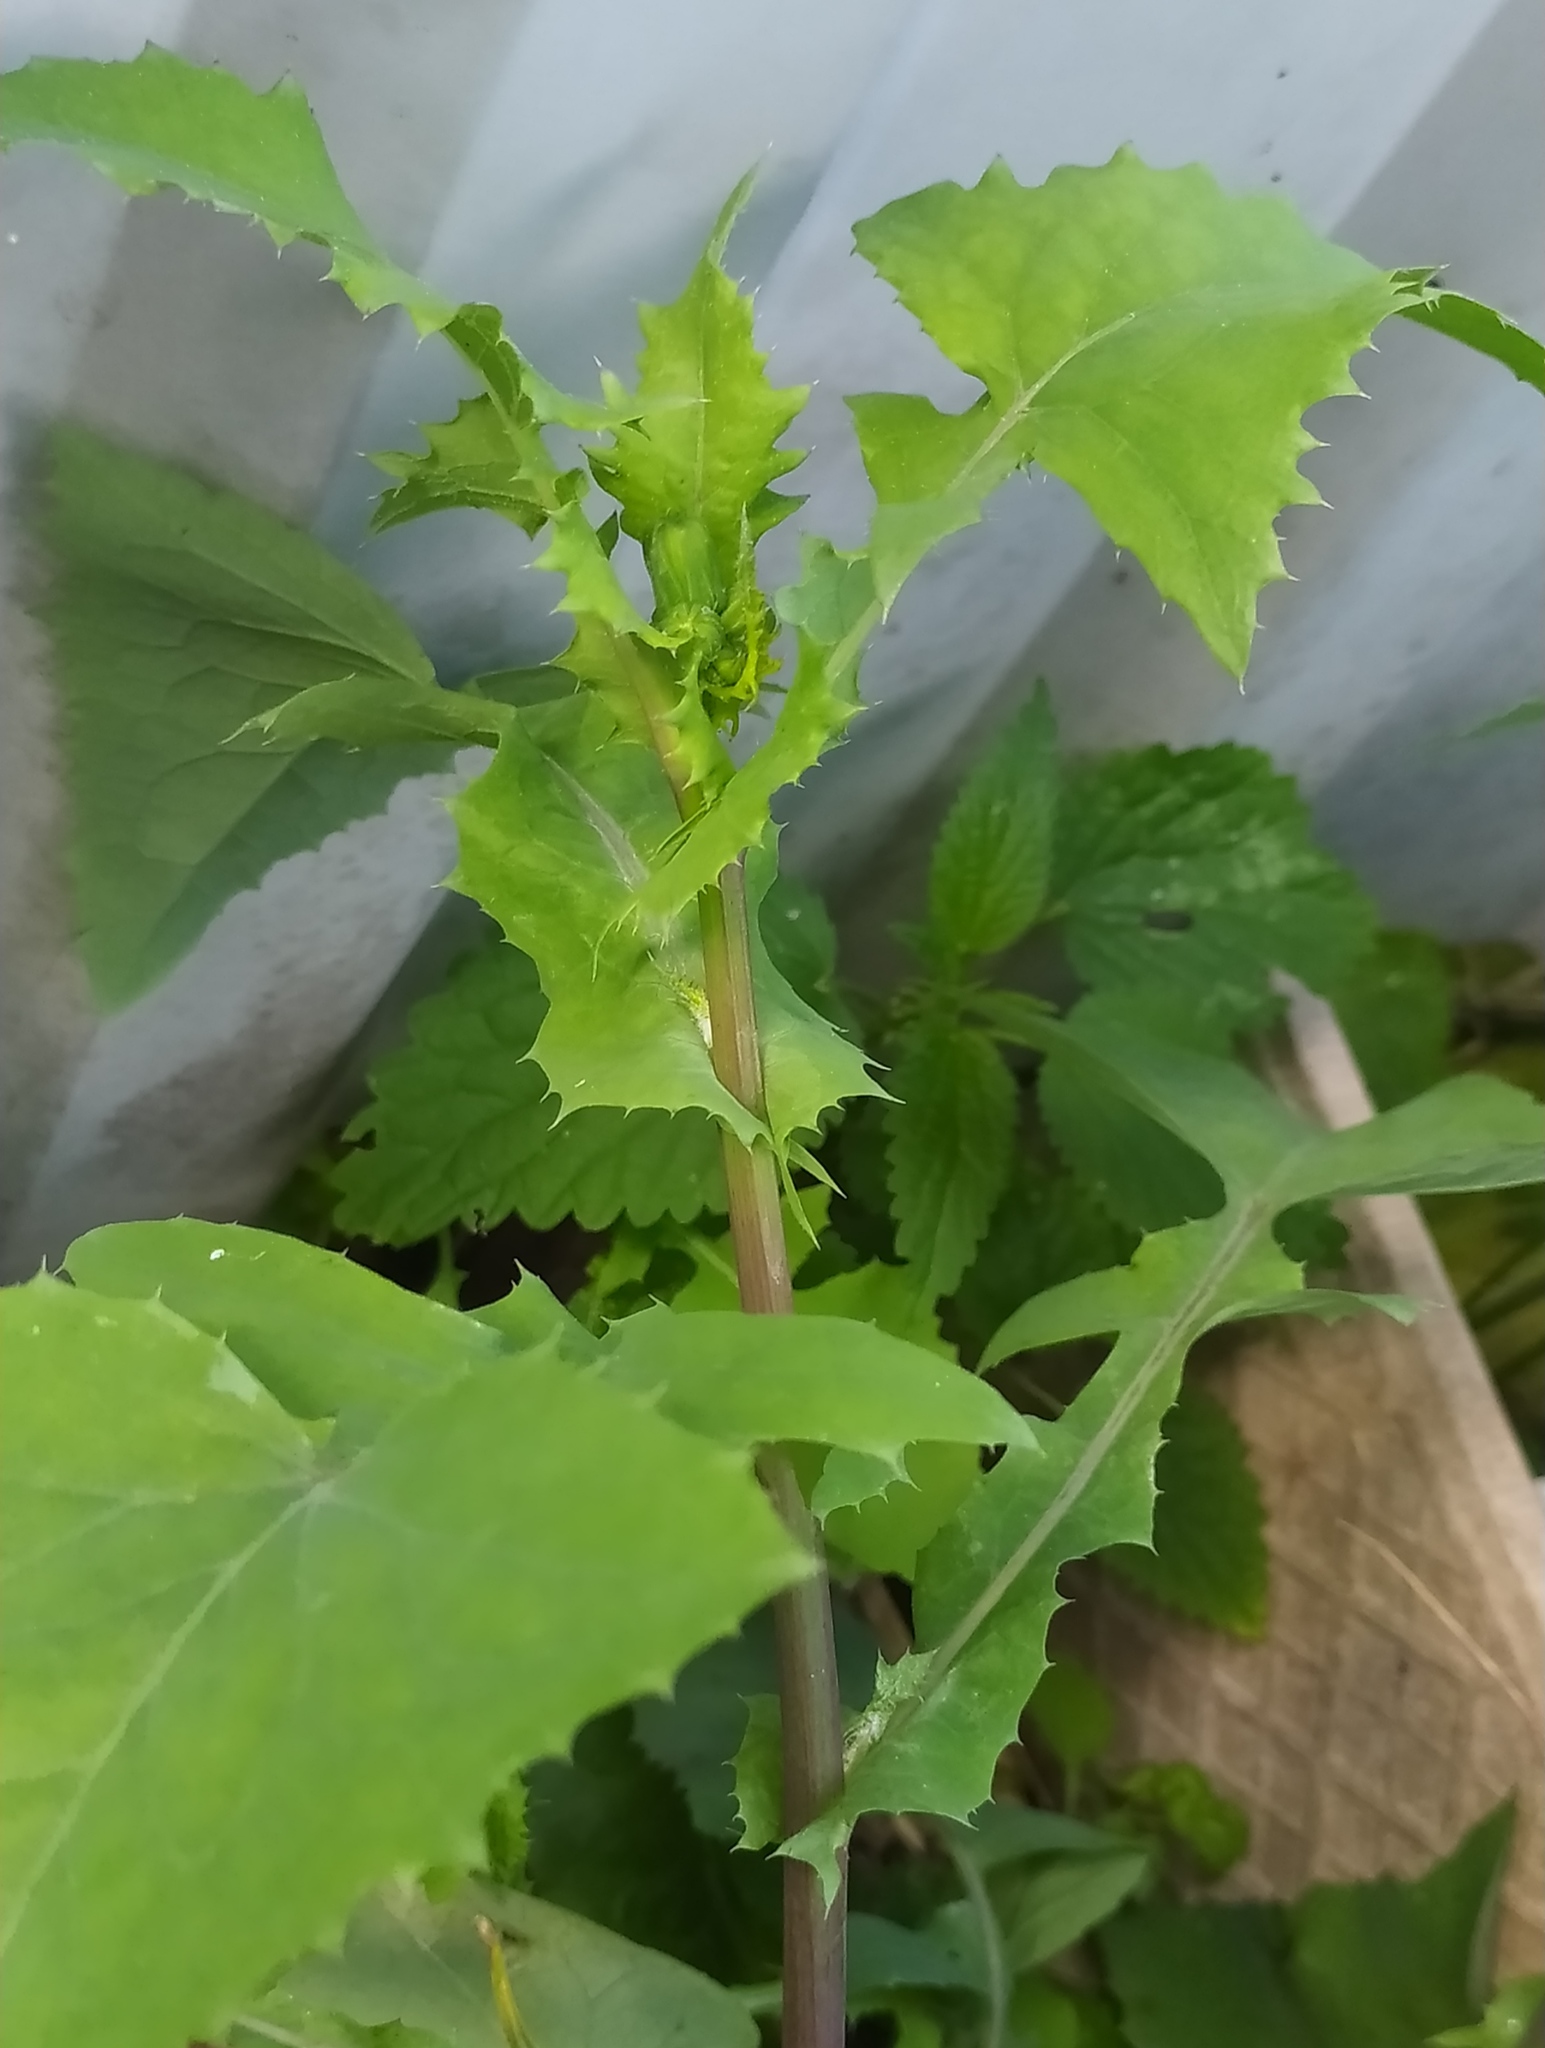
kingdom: Plantae
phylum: Tracheophyta
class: Magnoliopsida
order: Asterales
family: Asteraceae
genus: Sonchus
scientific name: Sonchus oleraceus
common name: Common sowthistle
